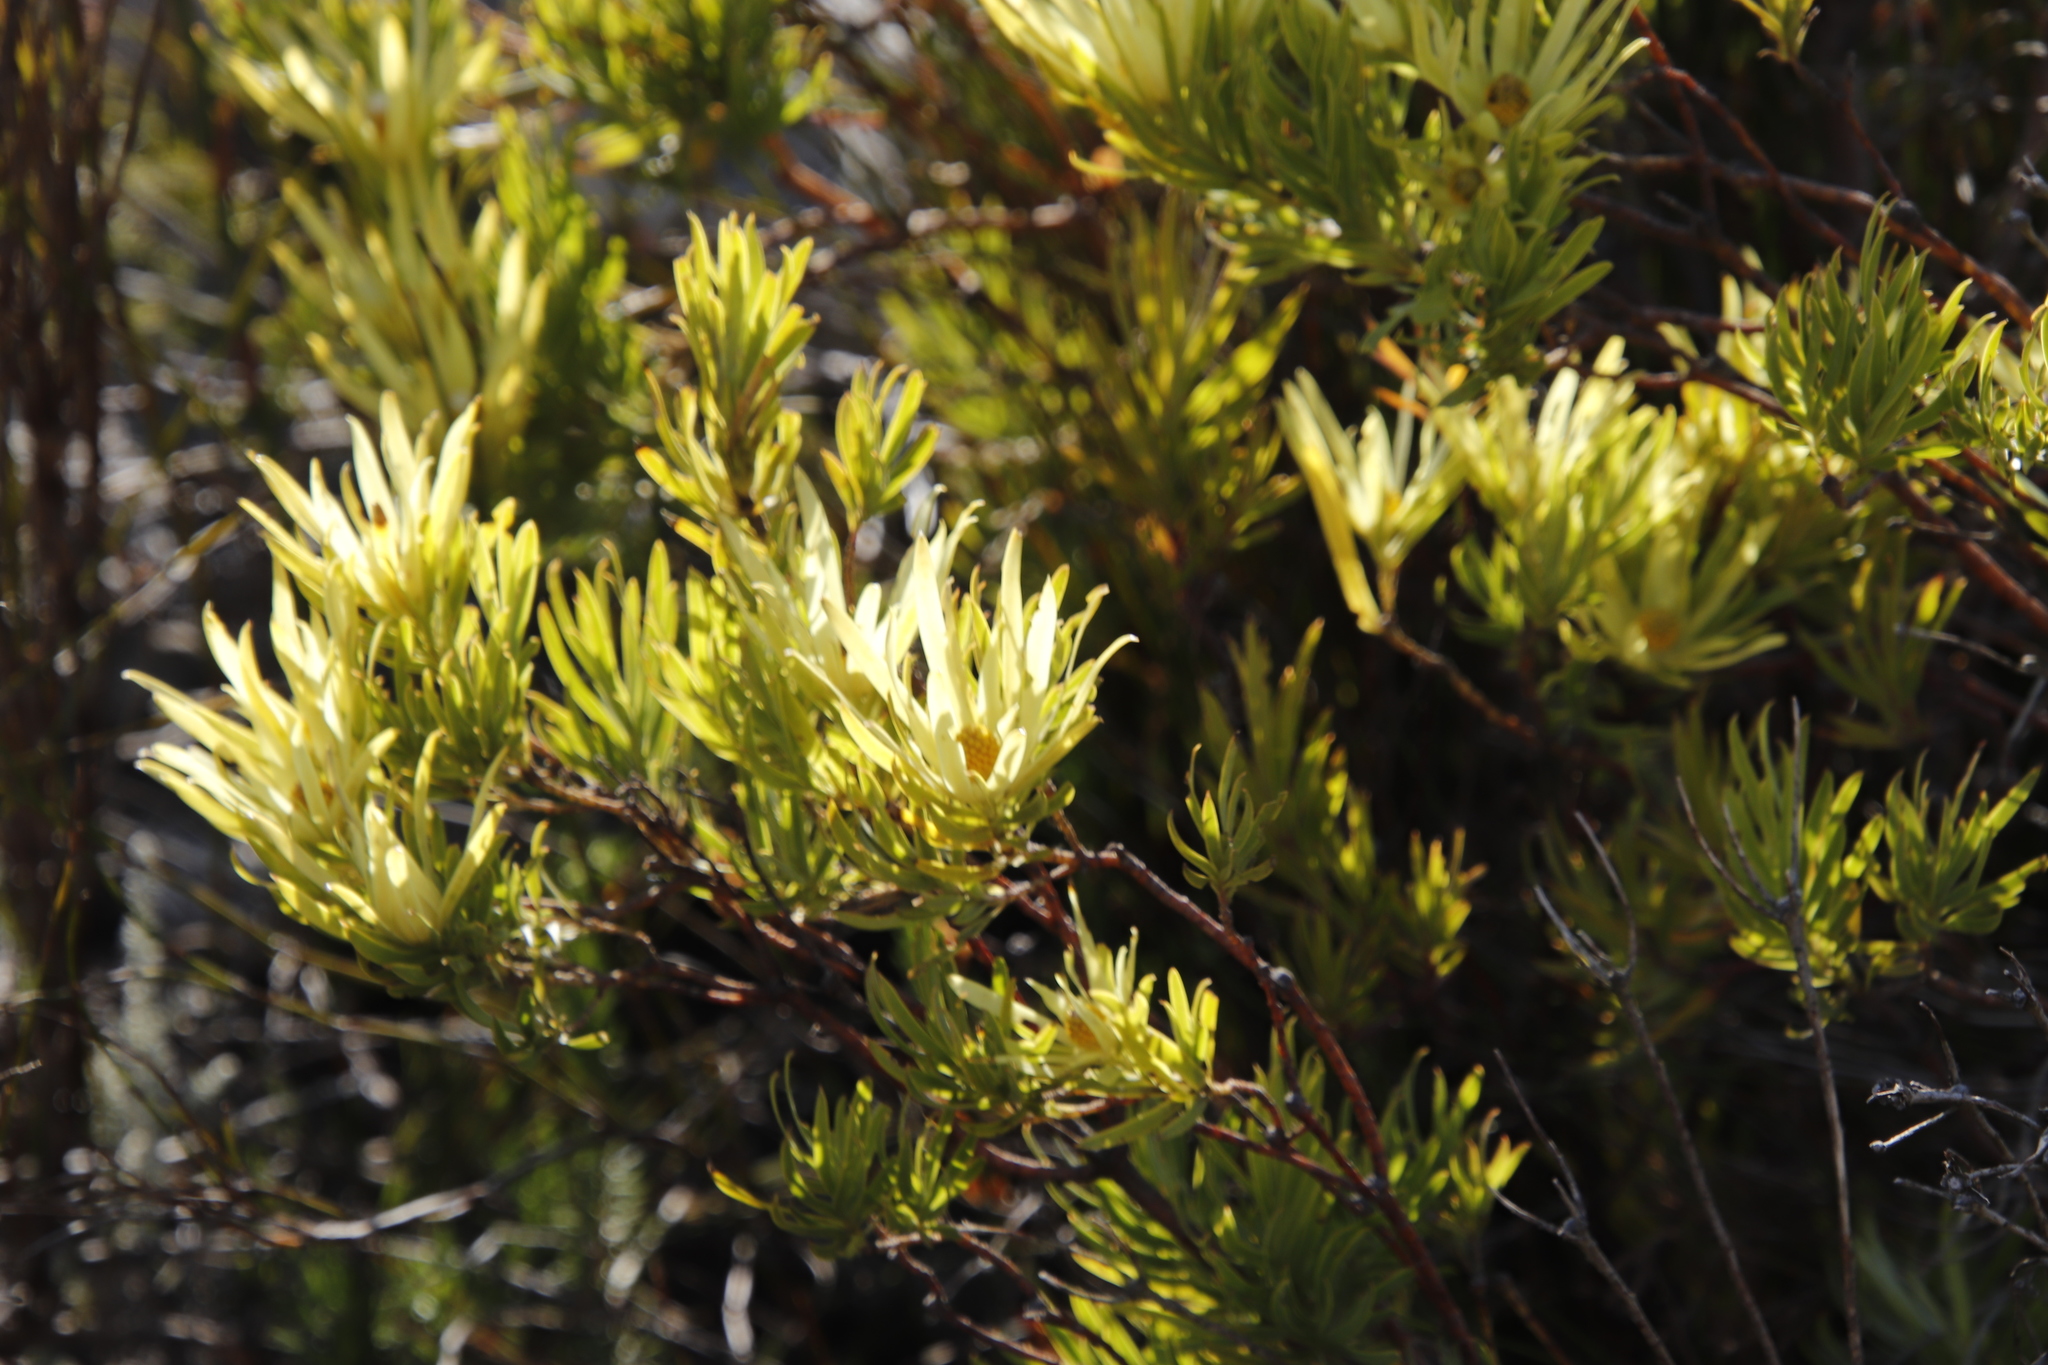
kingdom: Plantae
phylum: Tracheophyta
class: Magnoliopsida
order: Proteales
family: Proteaceae
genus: Leucadendron
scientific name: Leucadendron xanthoconus
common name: Sickle-leaf conebush
